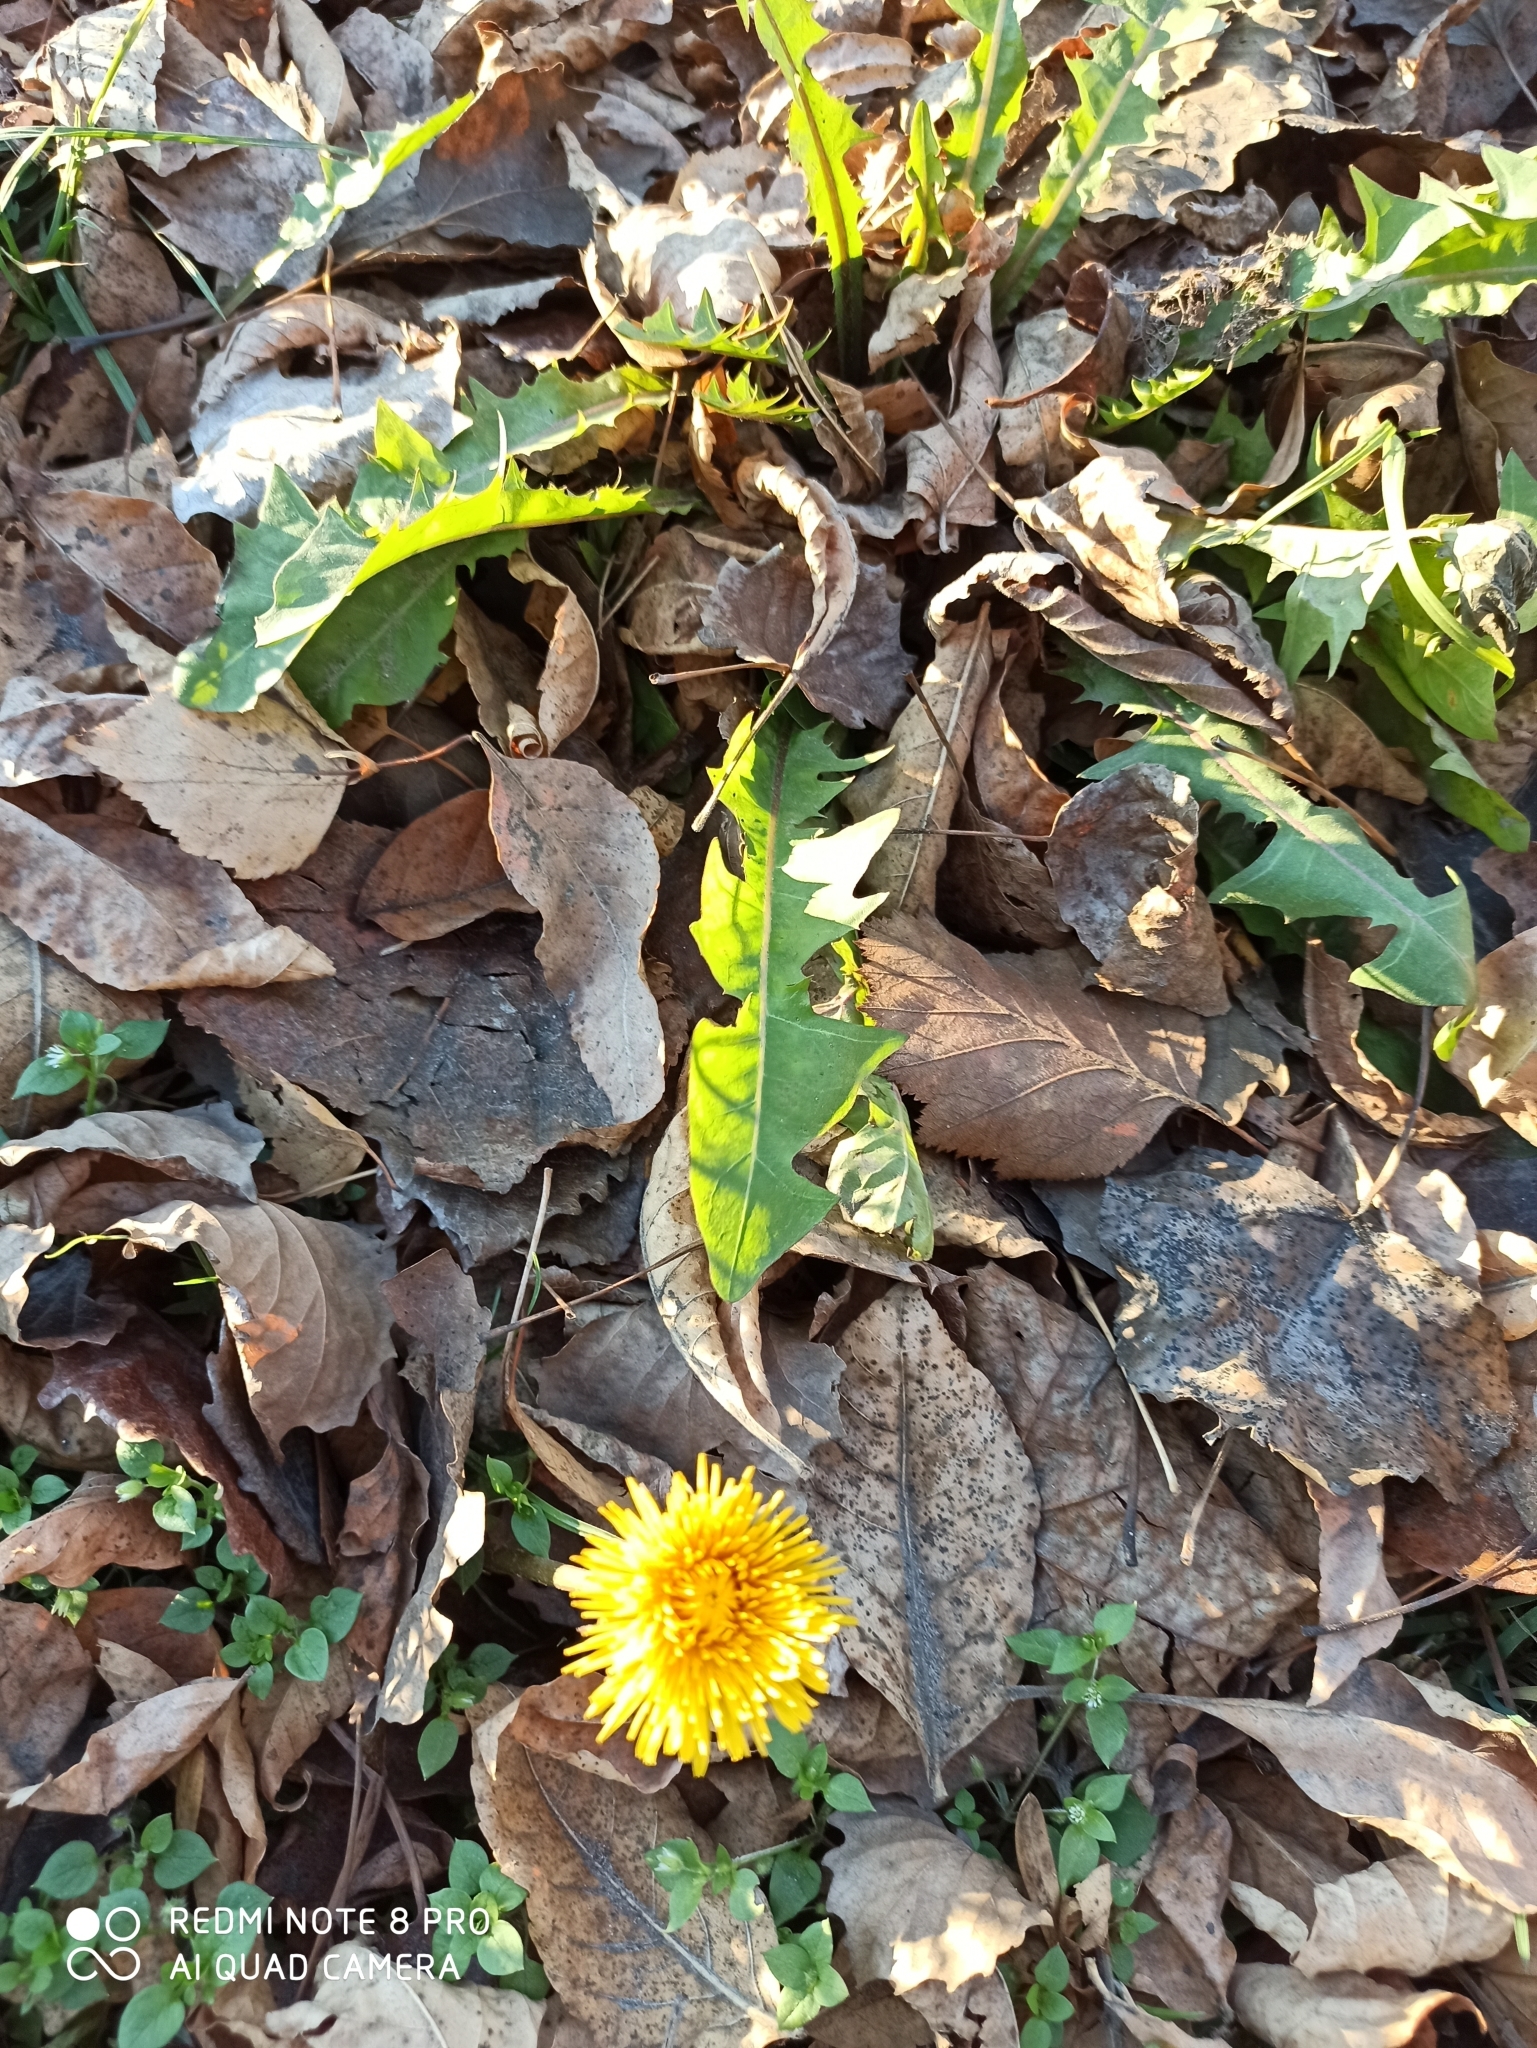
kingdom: Plantae
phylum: Tracheophyta
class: Magnoliopsida
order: Asterales
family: Asteraceae
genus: Taraxacum
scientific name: Taraxacum officinale
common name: Common dandelion
